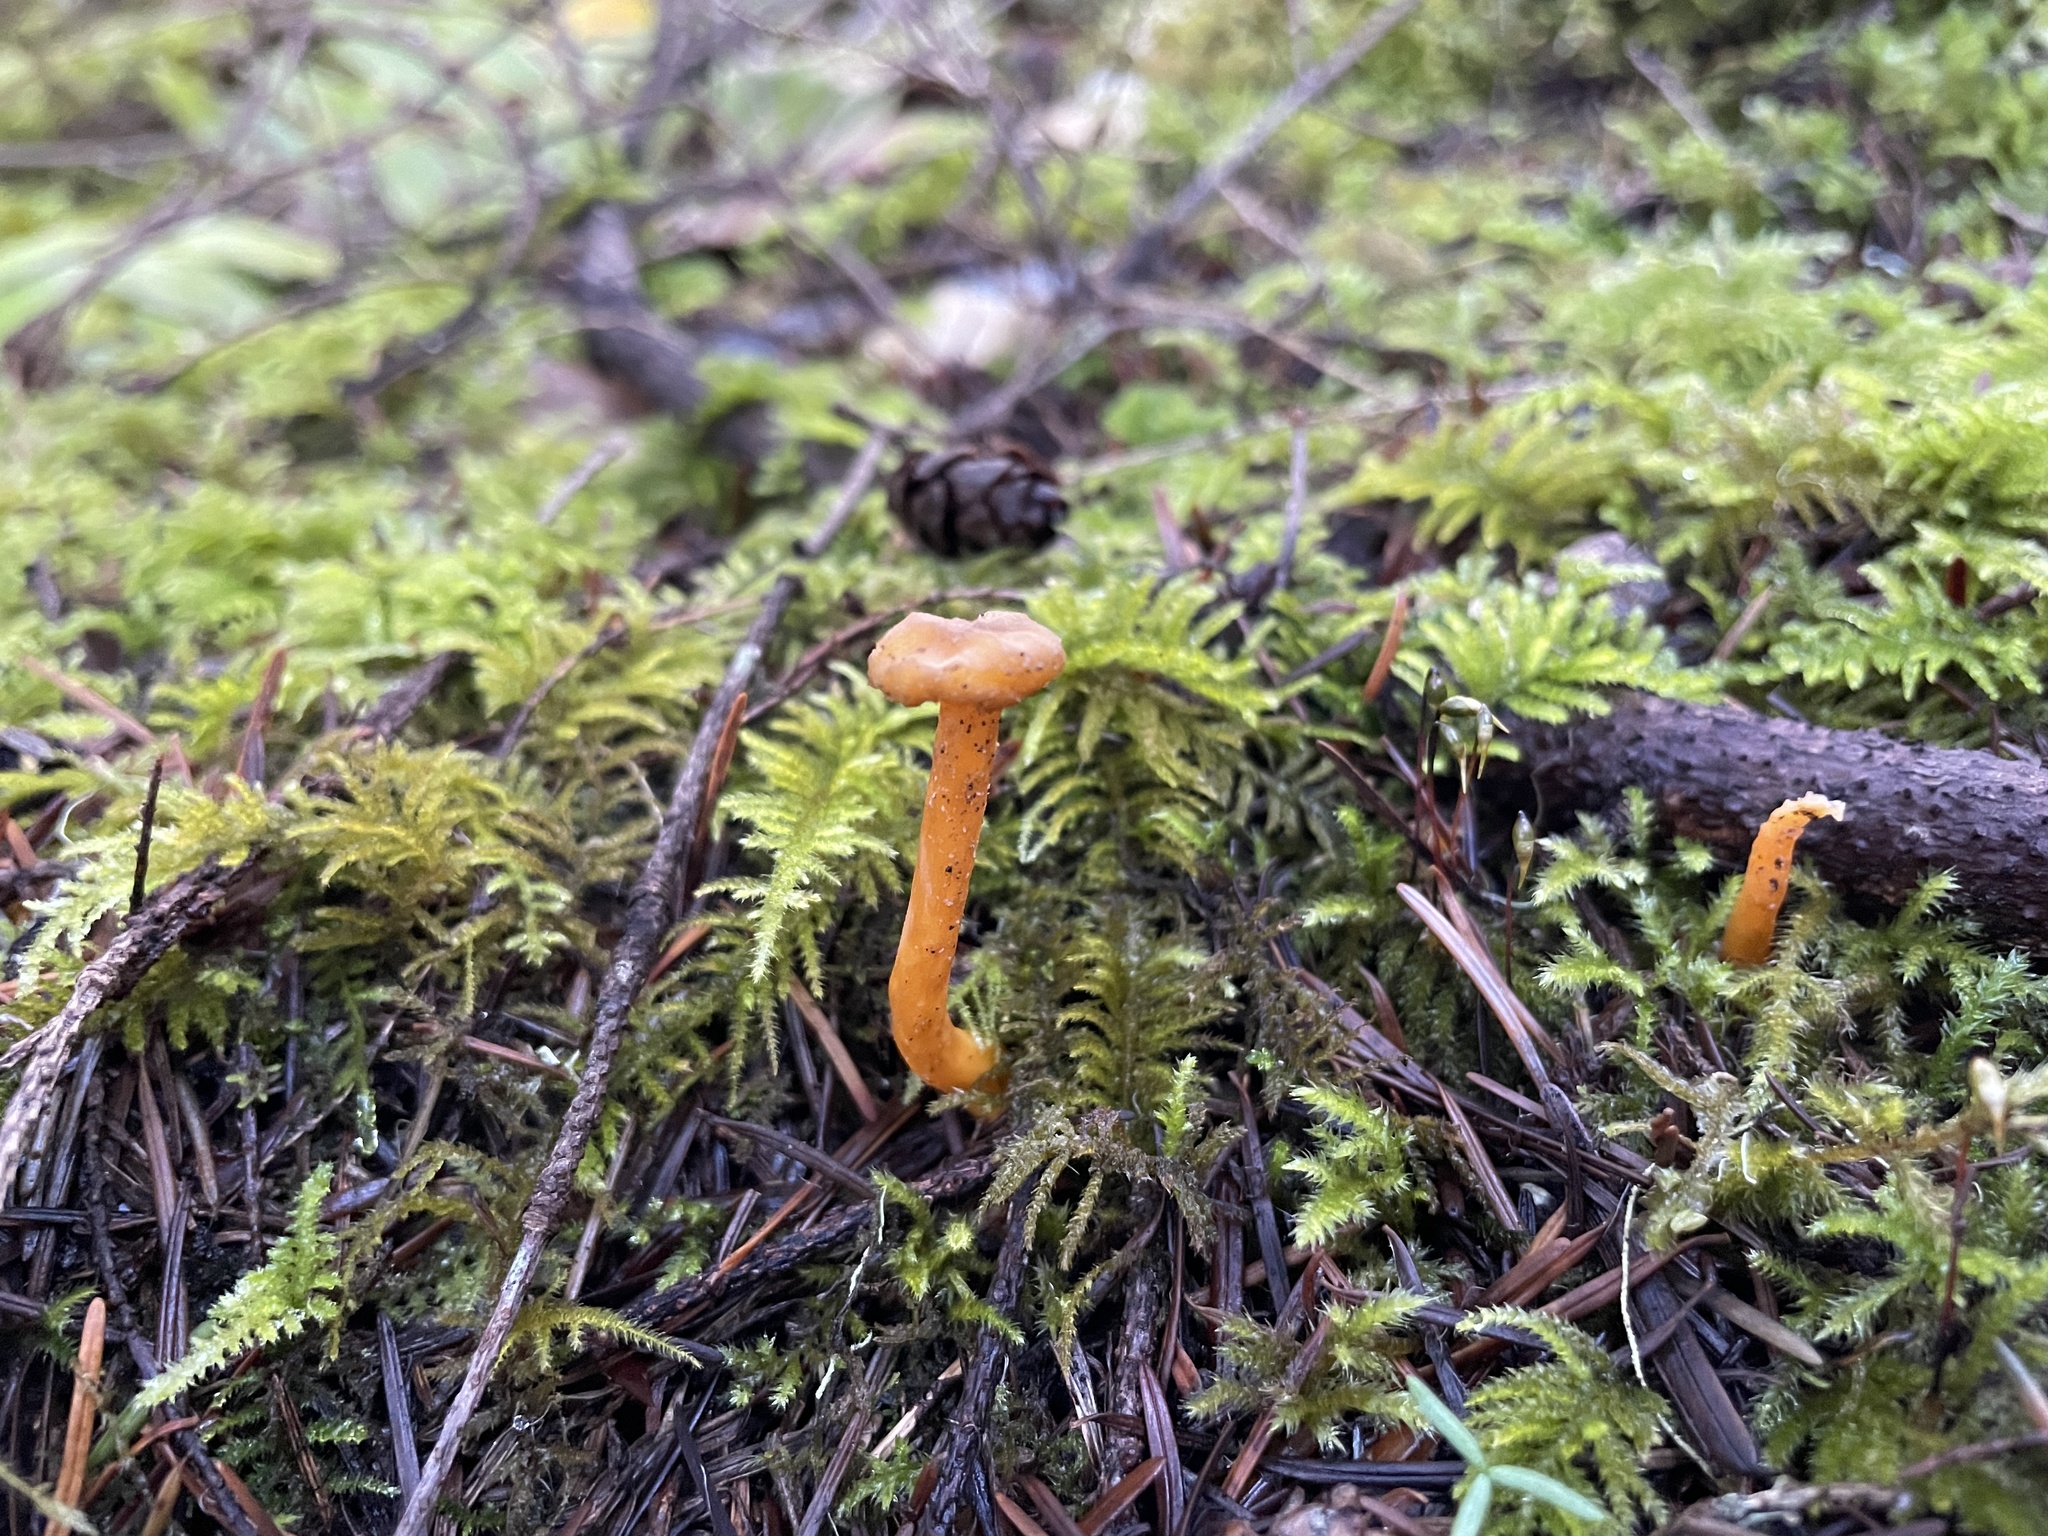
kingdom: Fungi
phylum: Basidiomycota
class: Agaricomycetes
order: Cantharellales
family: Hydnaceae
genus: Craterellus
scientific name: Craterellus tubaeformis
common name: Yellowfoot
